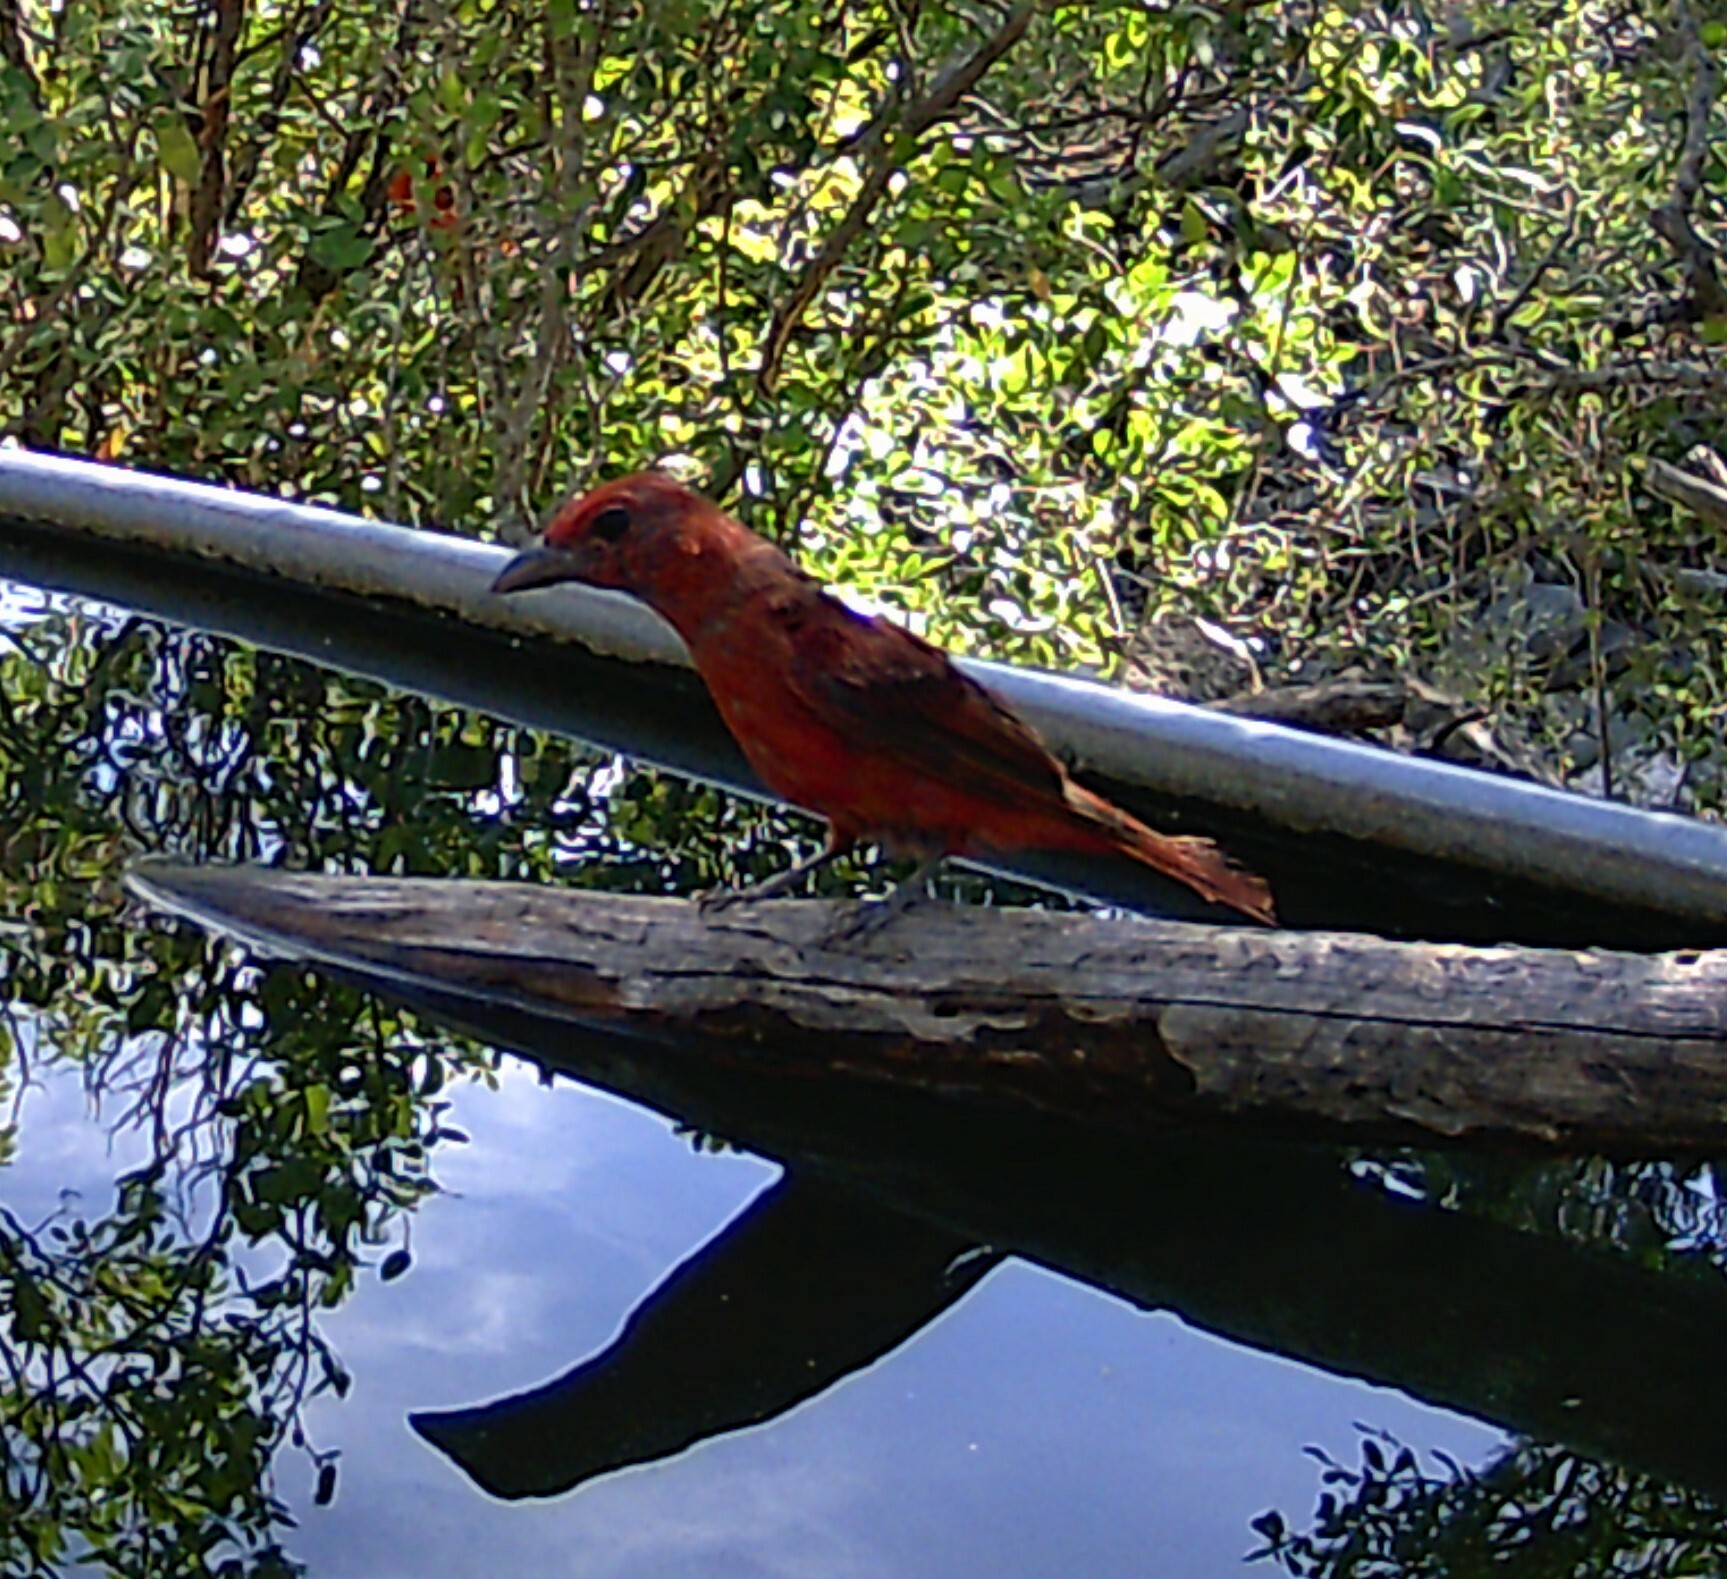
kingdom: Animalia
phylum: Chordata
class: Aves
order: Passeriformes
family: Cardinalidae
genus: Piranga
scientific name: Piranga rubra
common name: Summer tanager
